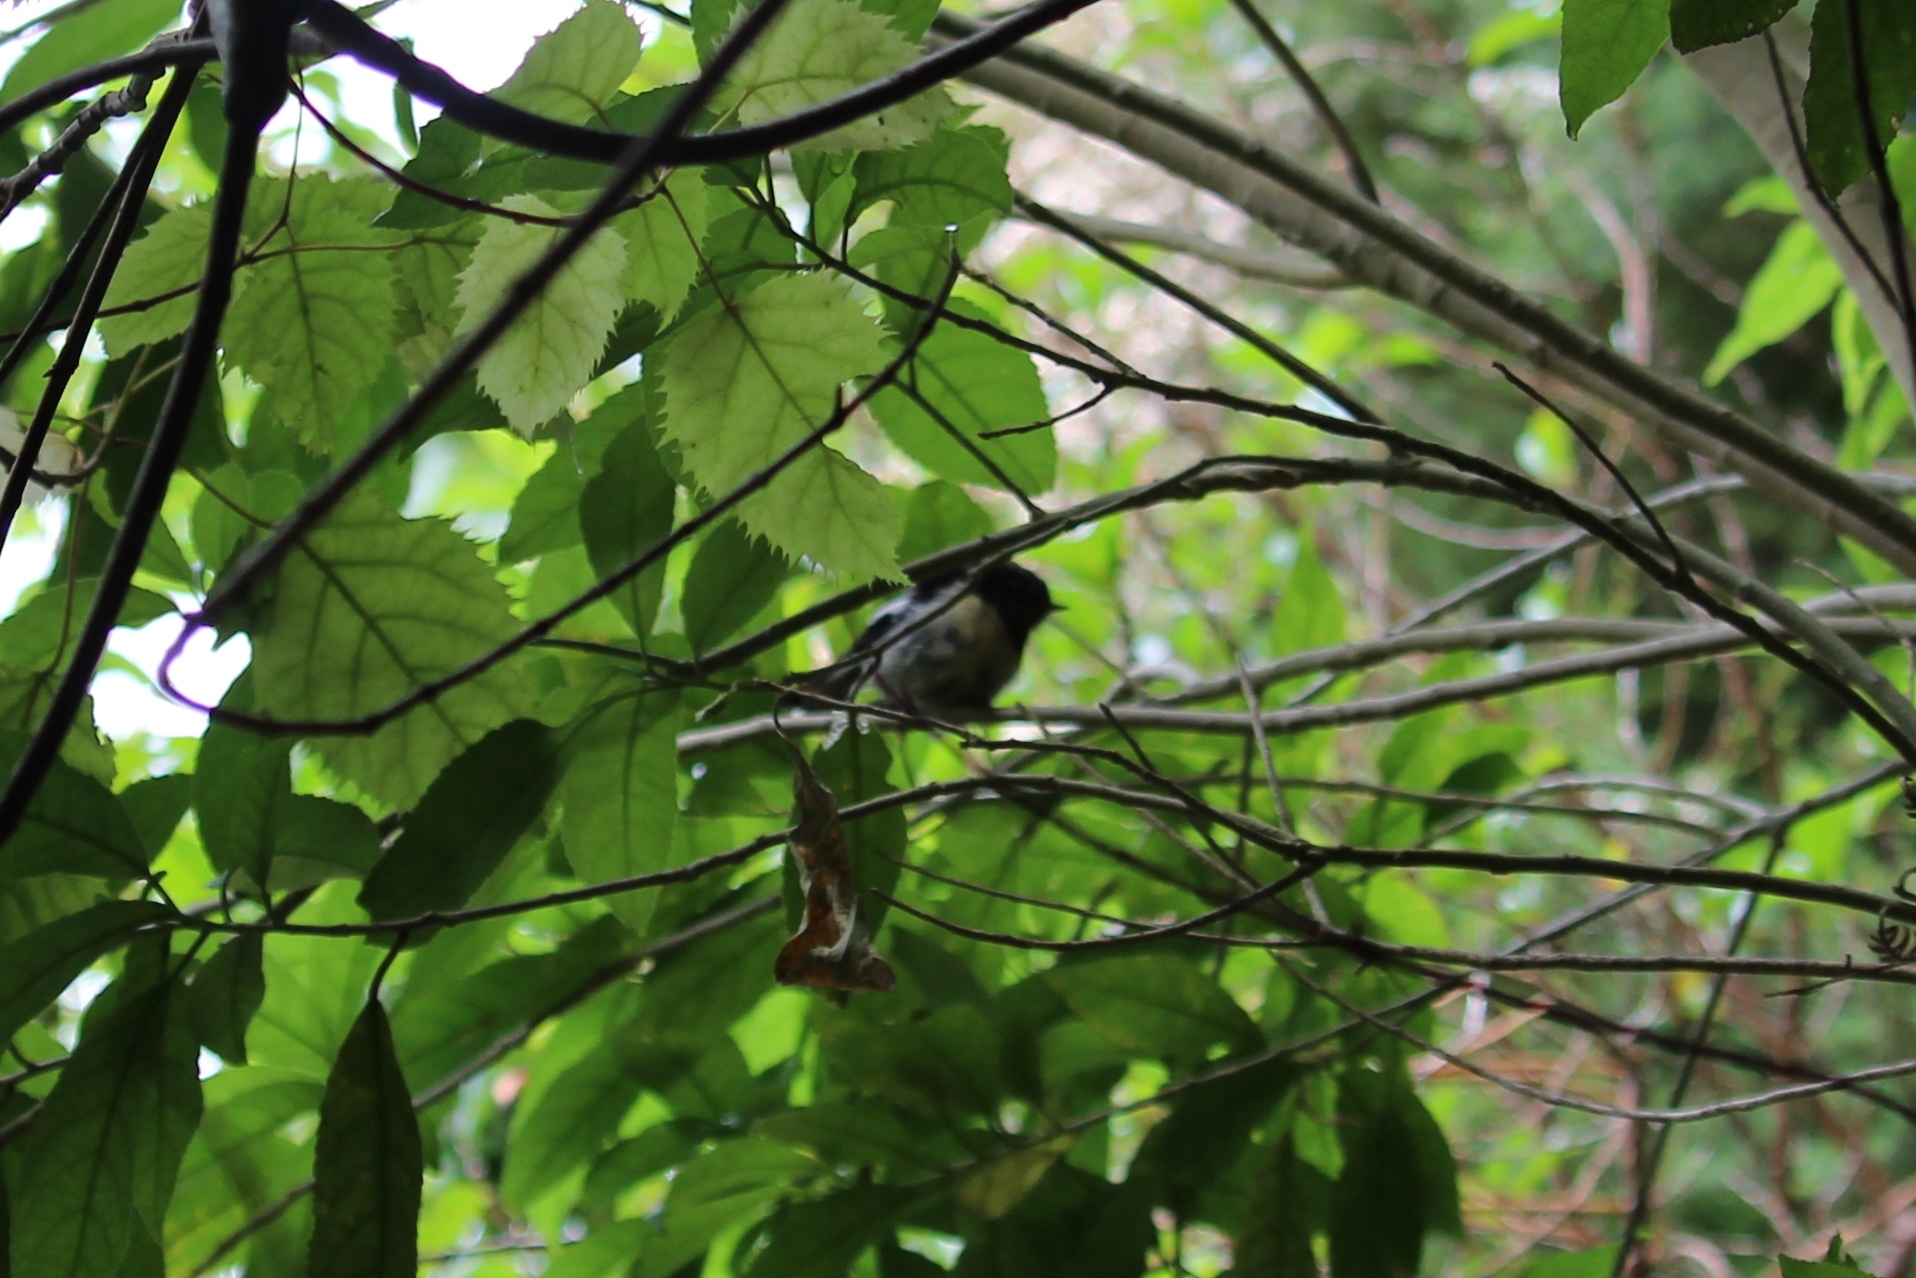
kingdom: Animalia
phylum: Chordata
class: Aves
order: Passeriformes
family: Petroicidae
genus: Petroica
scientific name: Petroica macrocephala
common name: Tomtit
